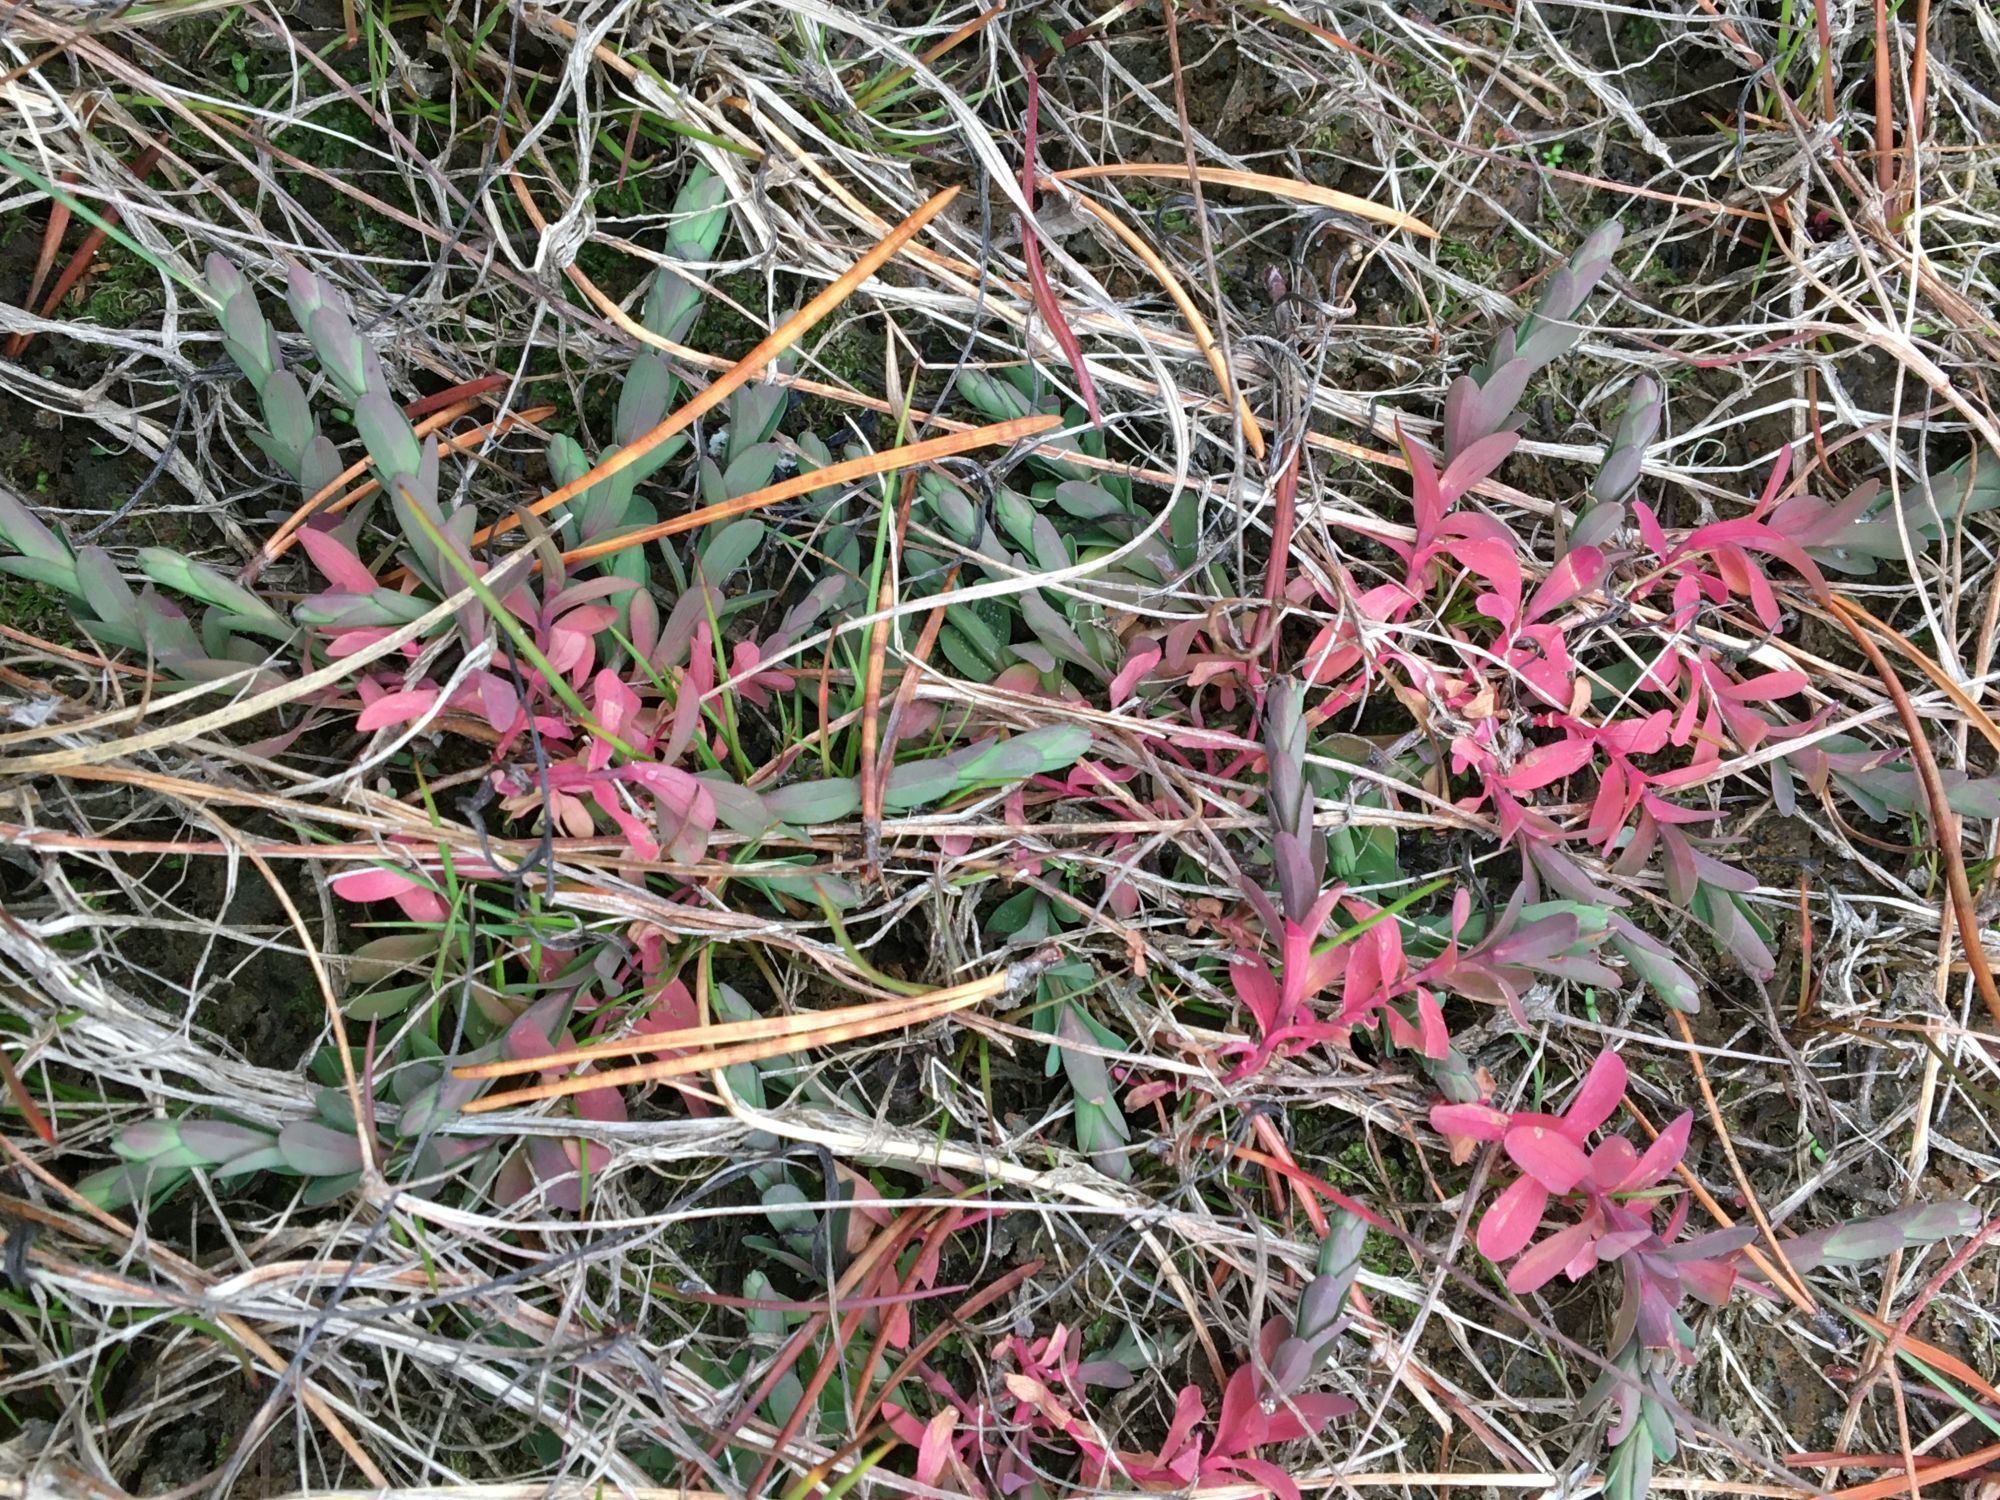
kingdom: Plantae
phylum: Tracheophyta
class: Magnoliopsida
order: Malpighiales
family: Hypericaceae
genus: Hypericum
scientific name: Hypericum boreale
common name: Northern bog st. john's-wort
